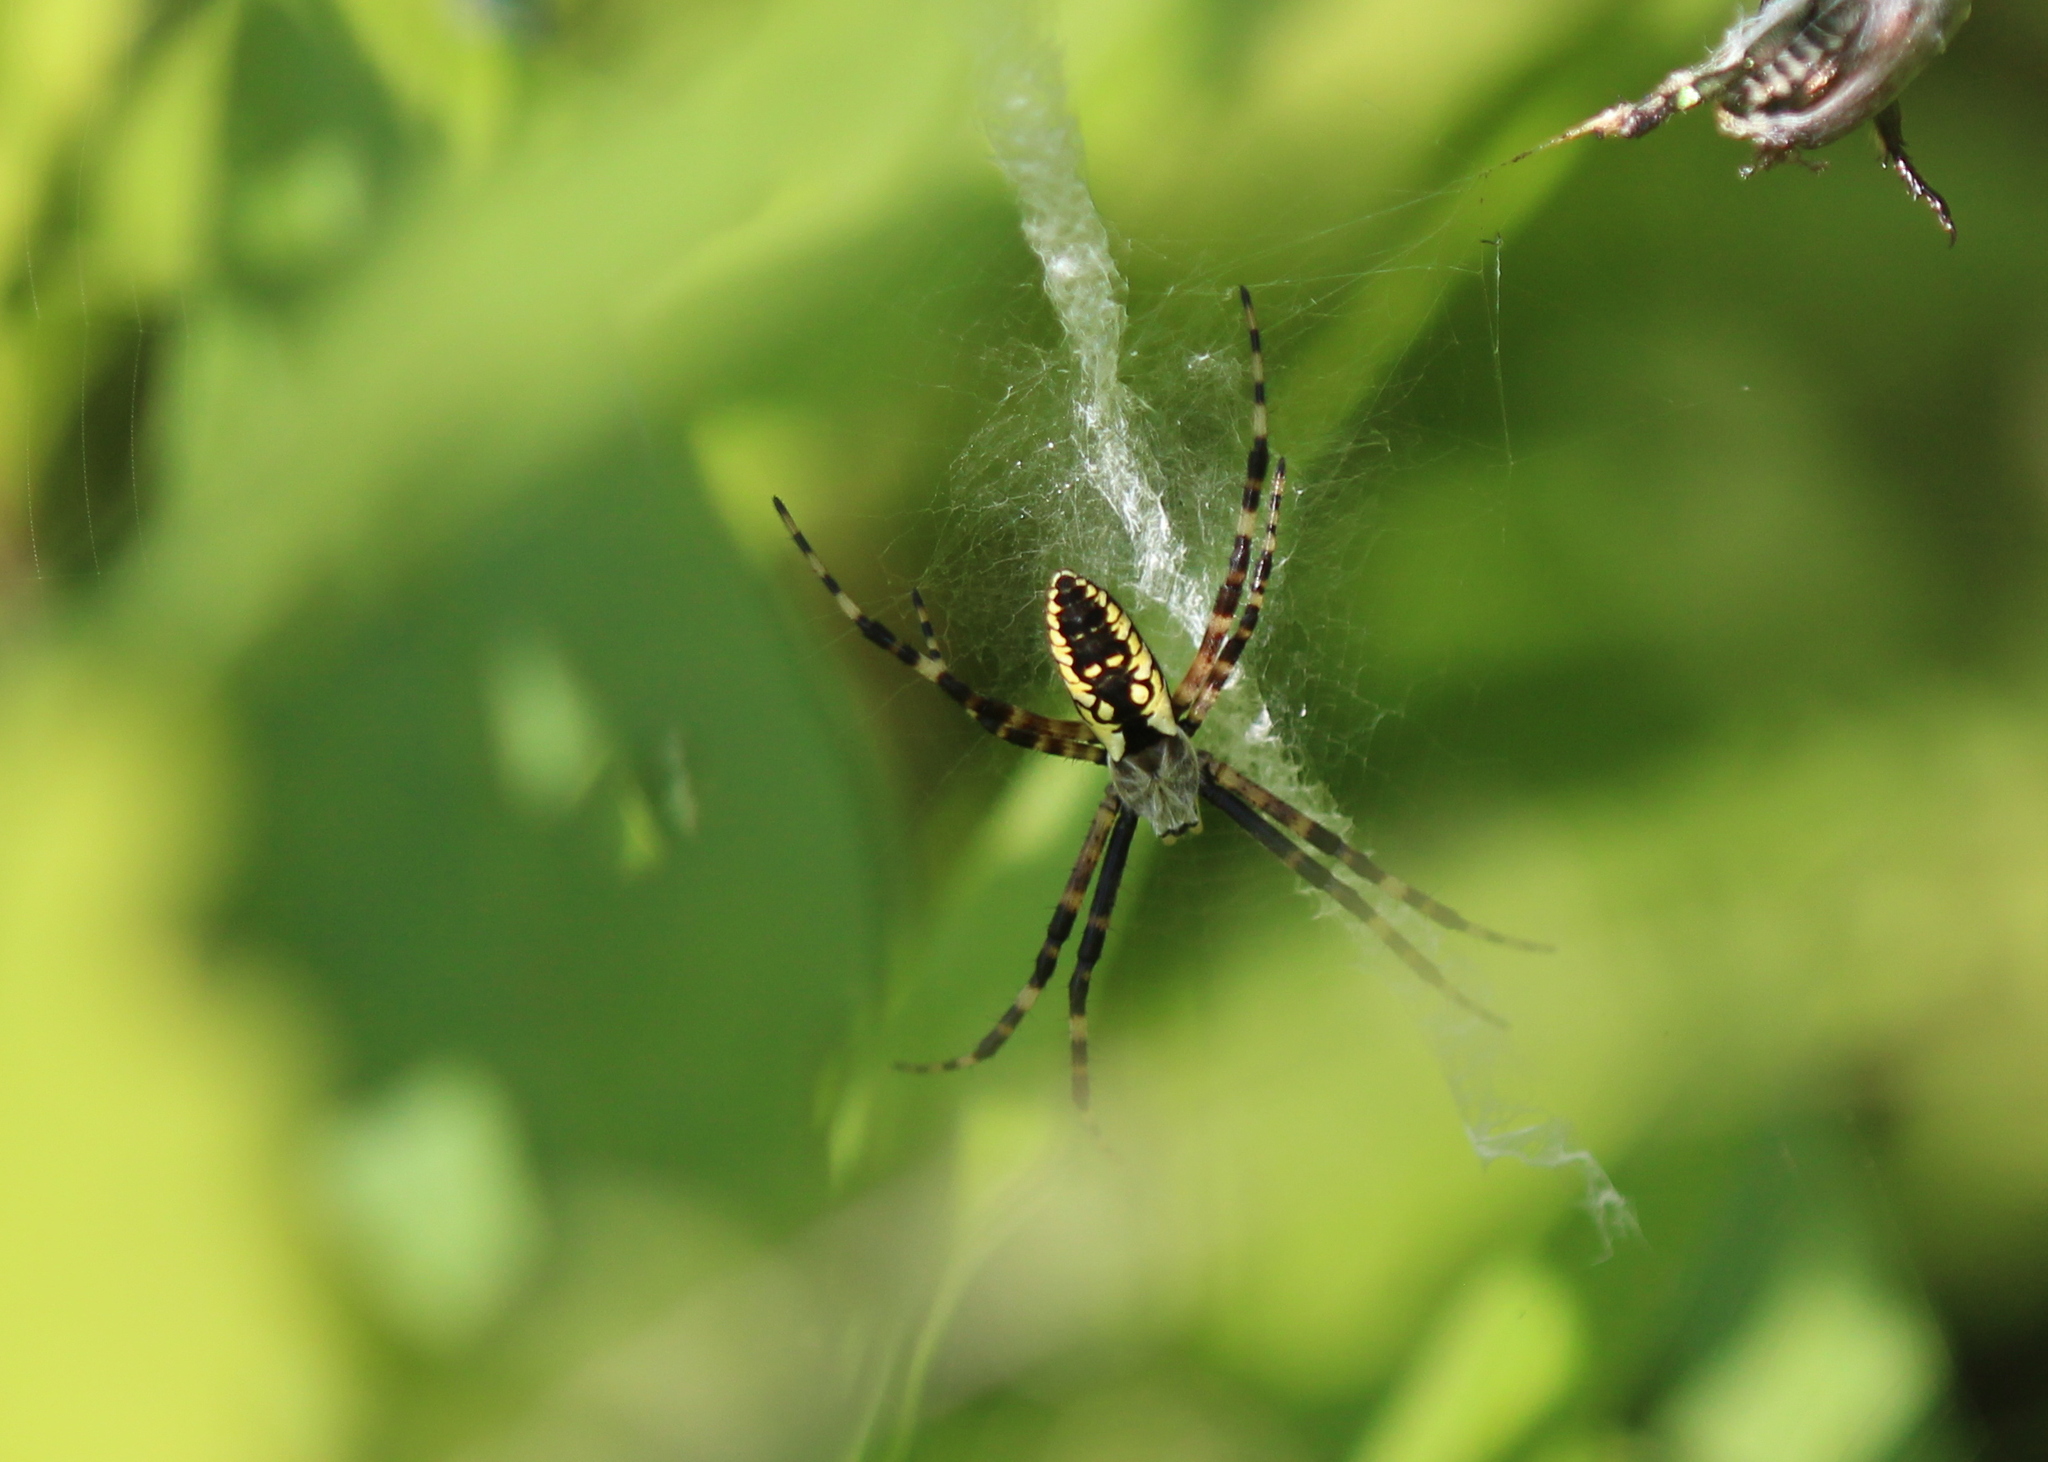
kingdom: Animalia
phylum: Arthropoda
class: Arachnida
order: Araneae
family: Araneidae
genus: Argiope
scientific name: Argiope aurantia
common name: Orb weavers
